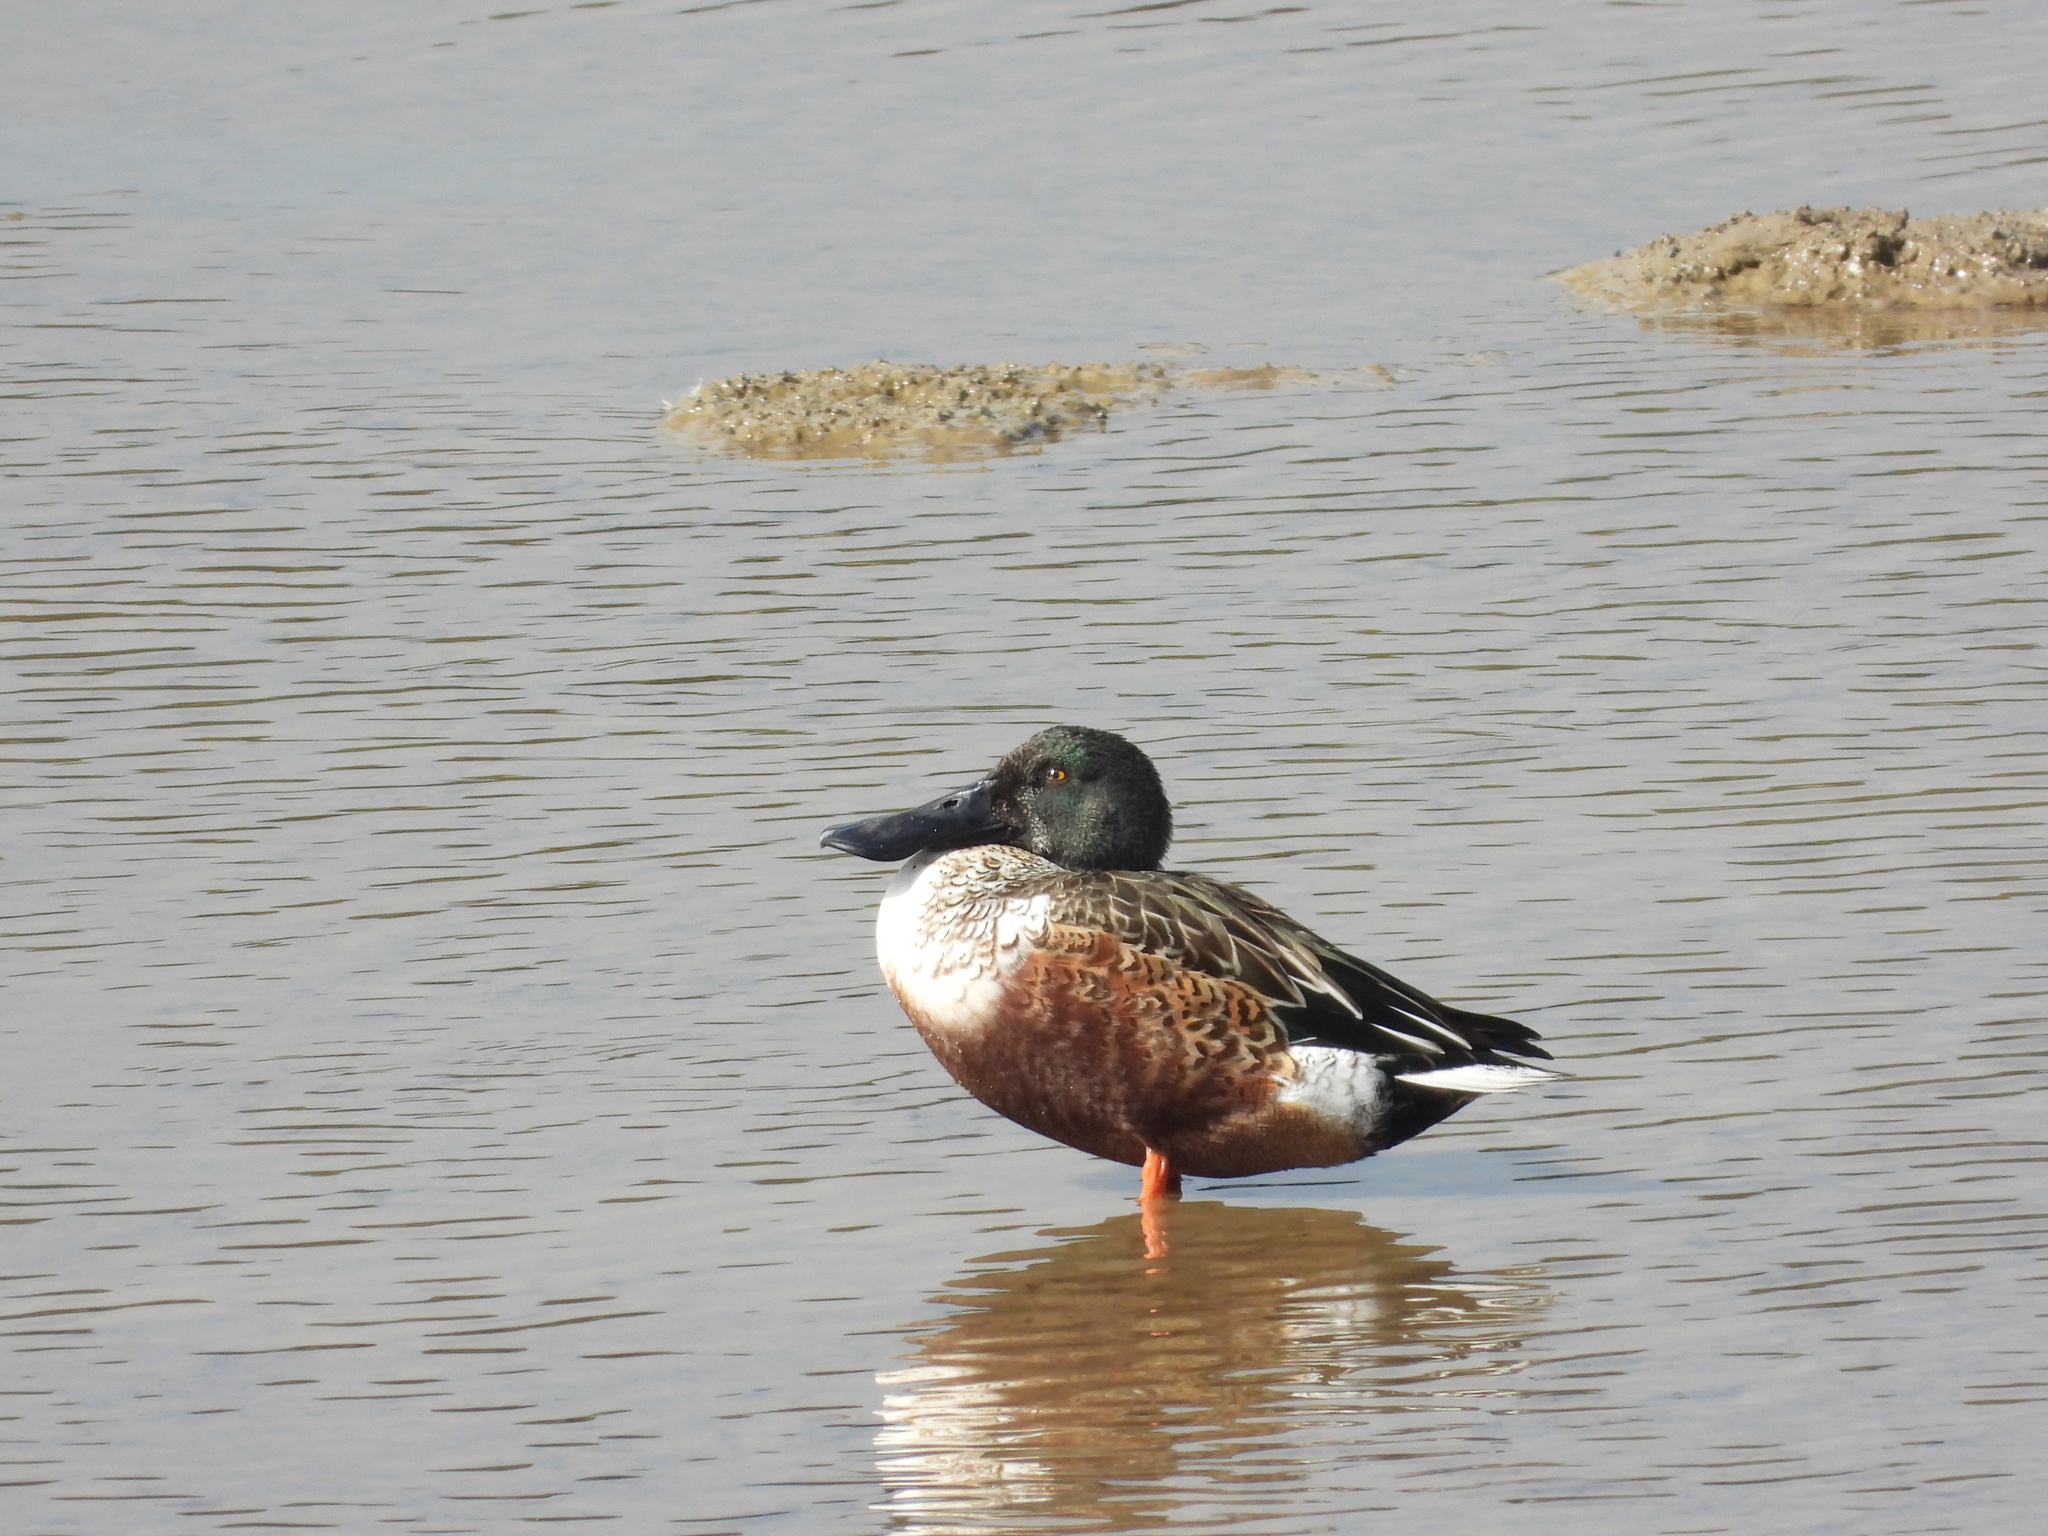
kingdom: Animalia
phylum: Chordata
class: Aves
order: Anseriformes
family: Anatidae
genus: Spatula
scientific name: Spatula clypeata
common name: Northern shoveler
